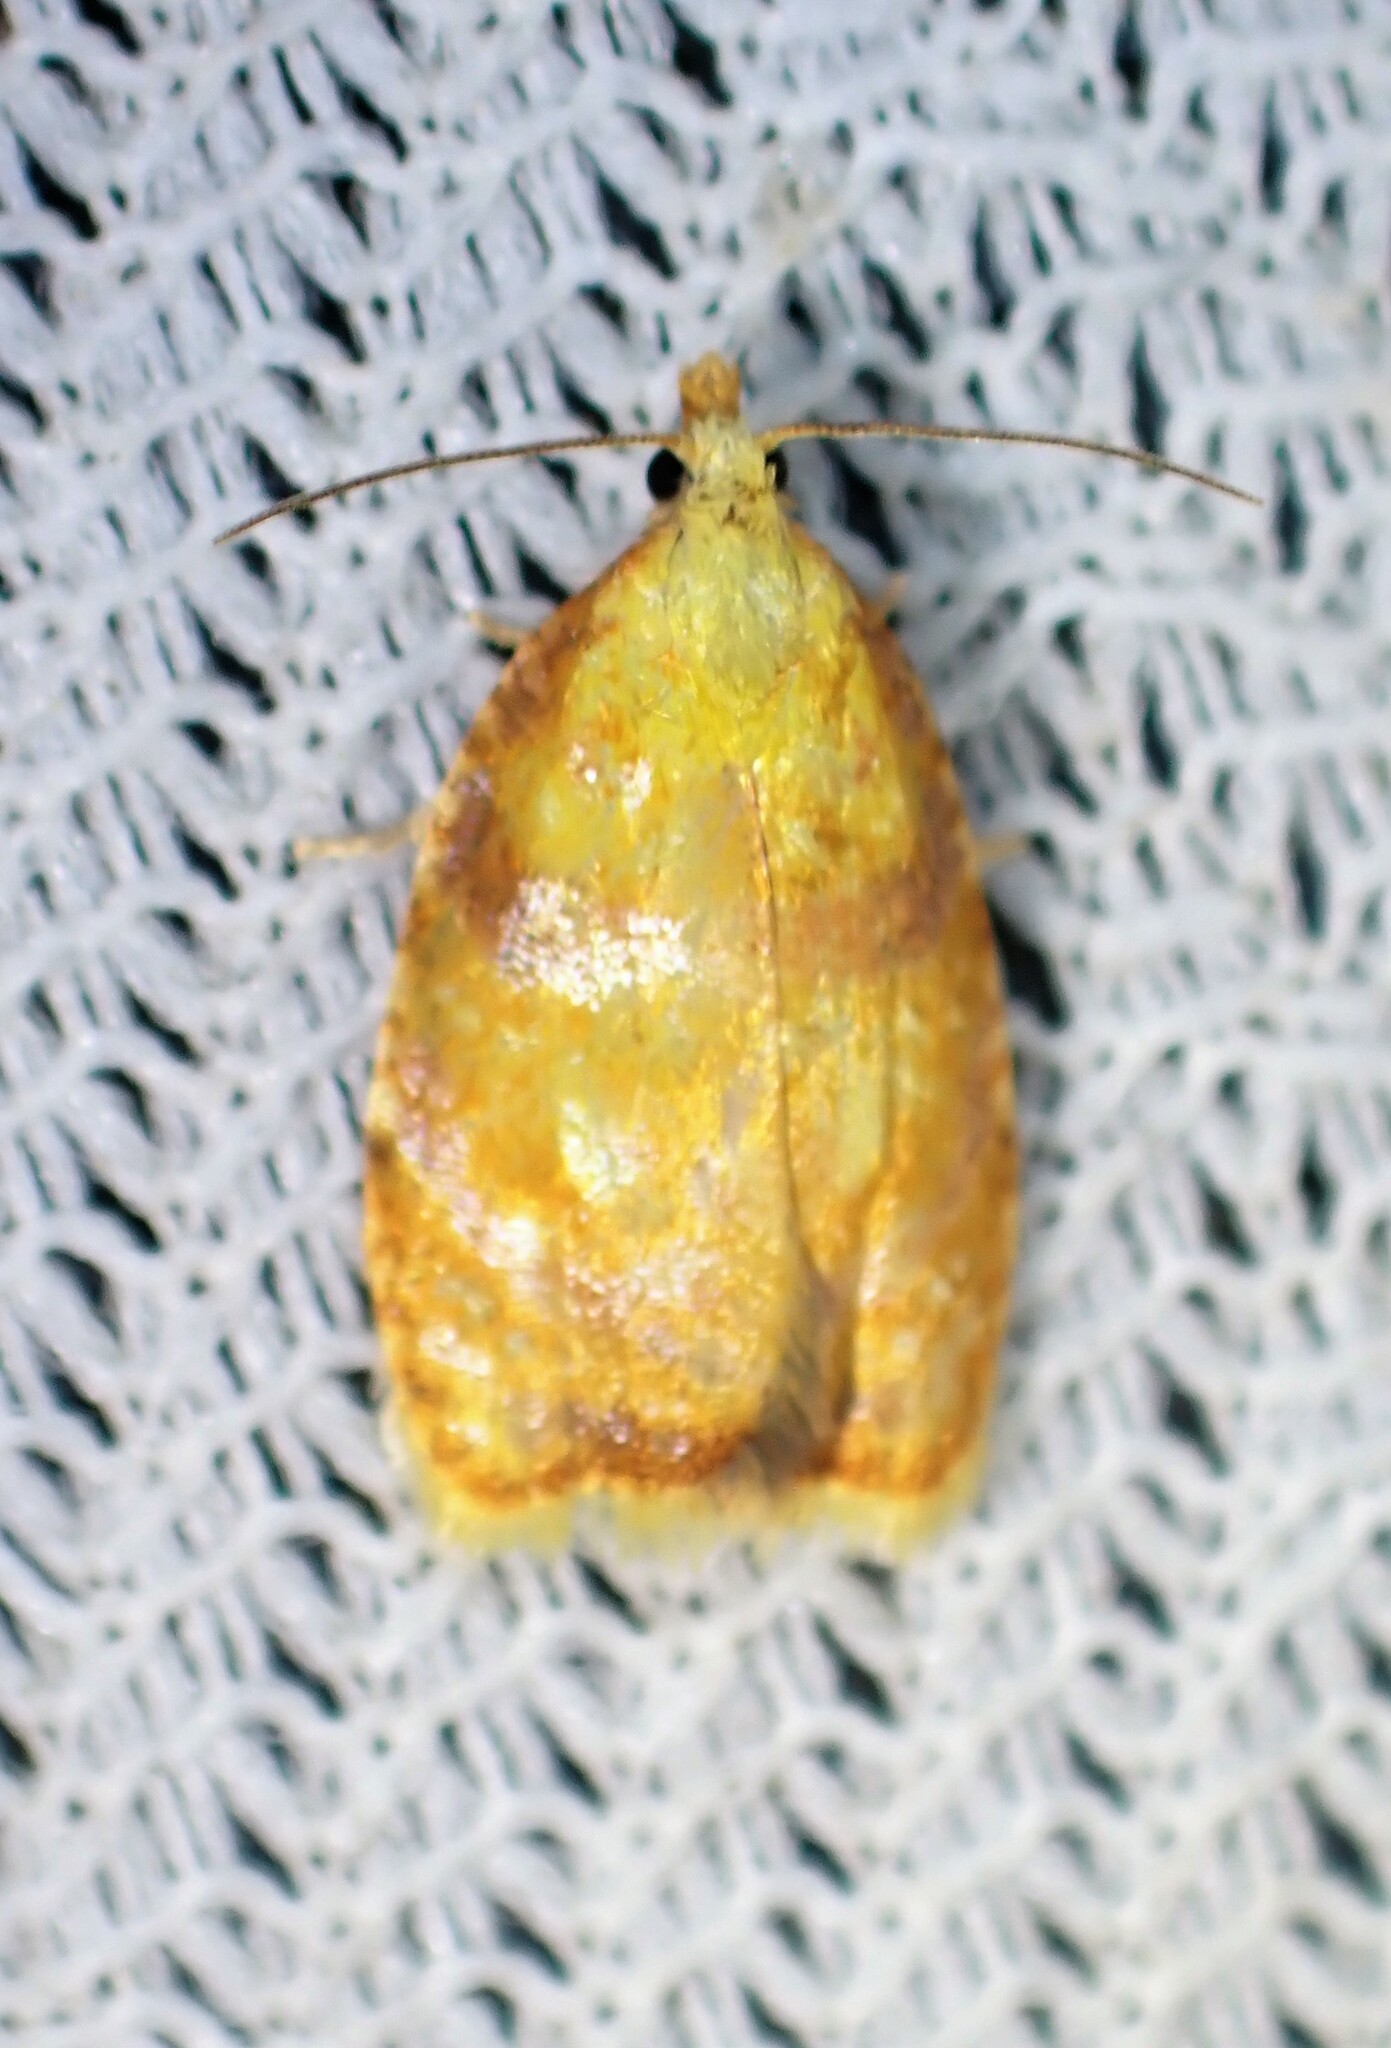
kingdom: Animalia
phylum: Arthropoda
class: Insecta
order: Lepidoptera
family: Tortricidae
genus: Acleris
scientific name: Acleris curvalana
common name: Blueberry leaftier moth
